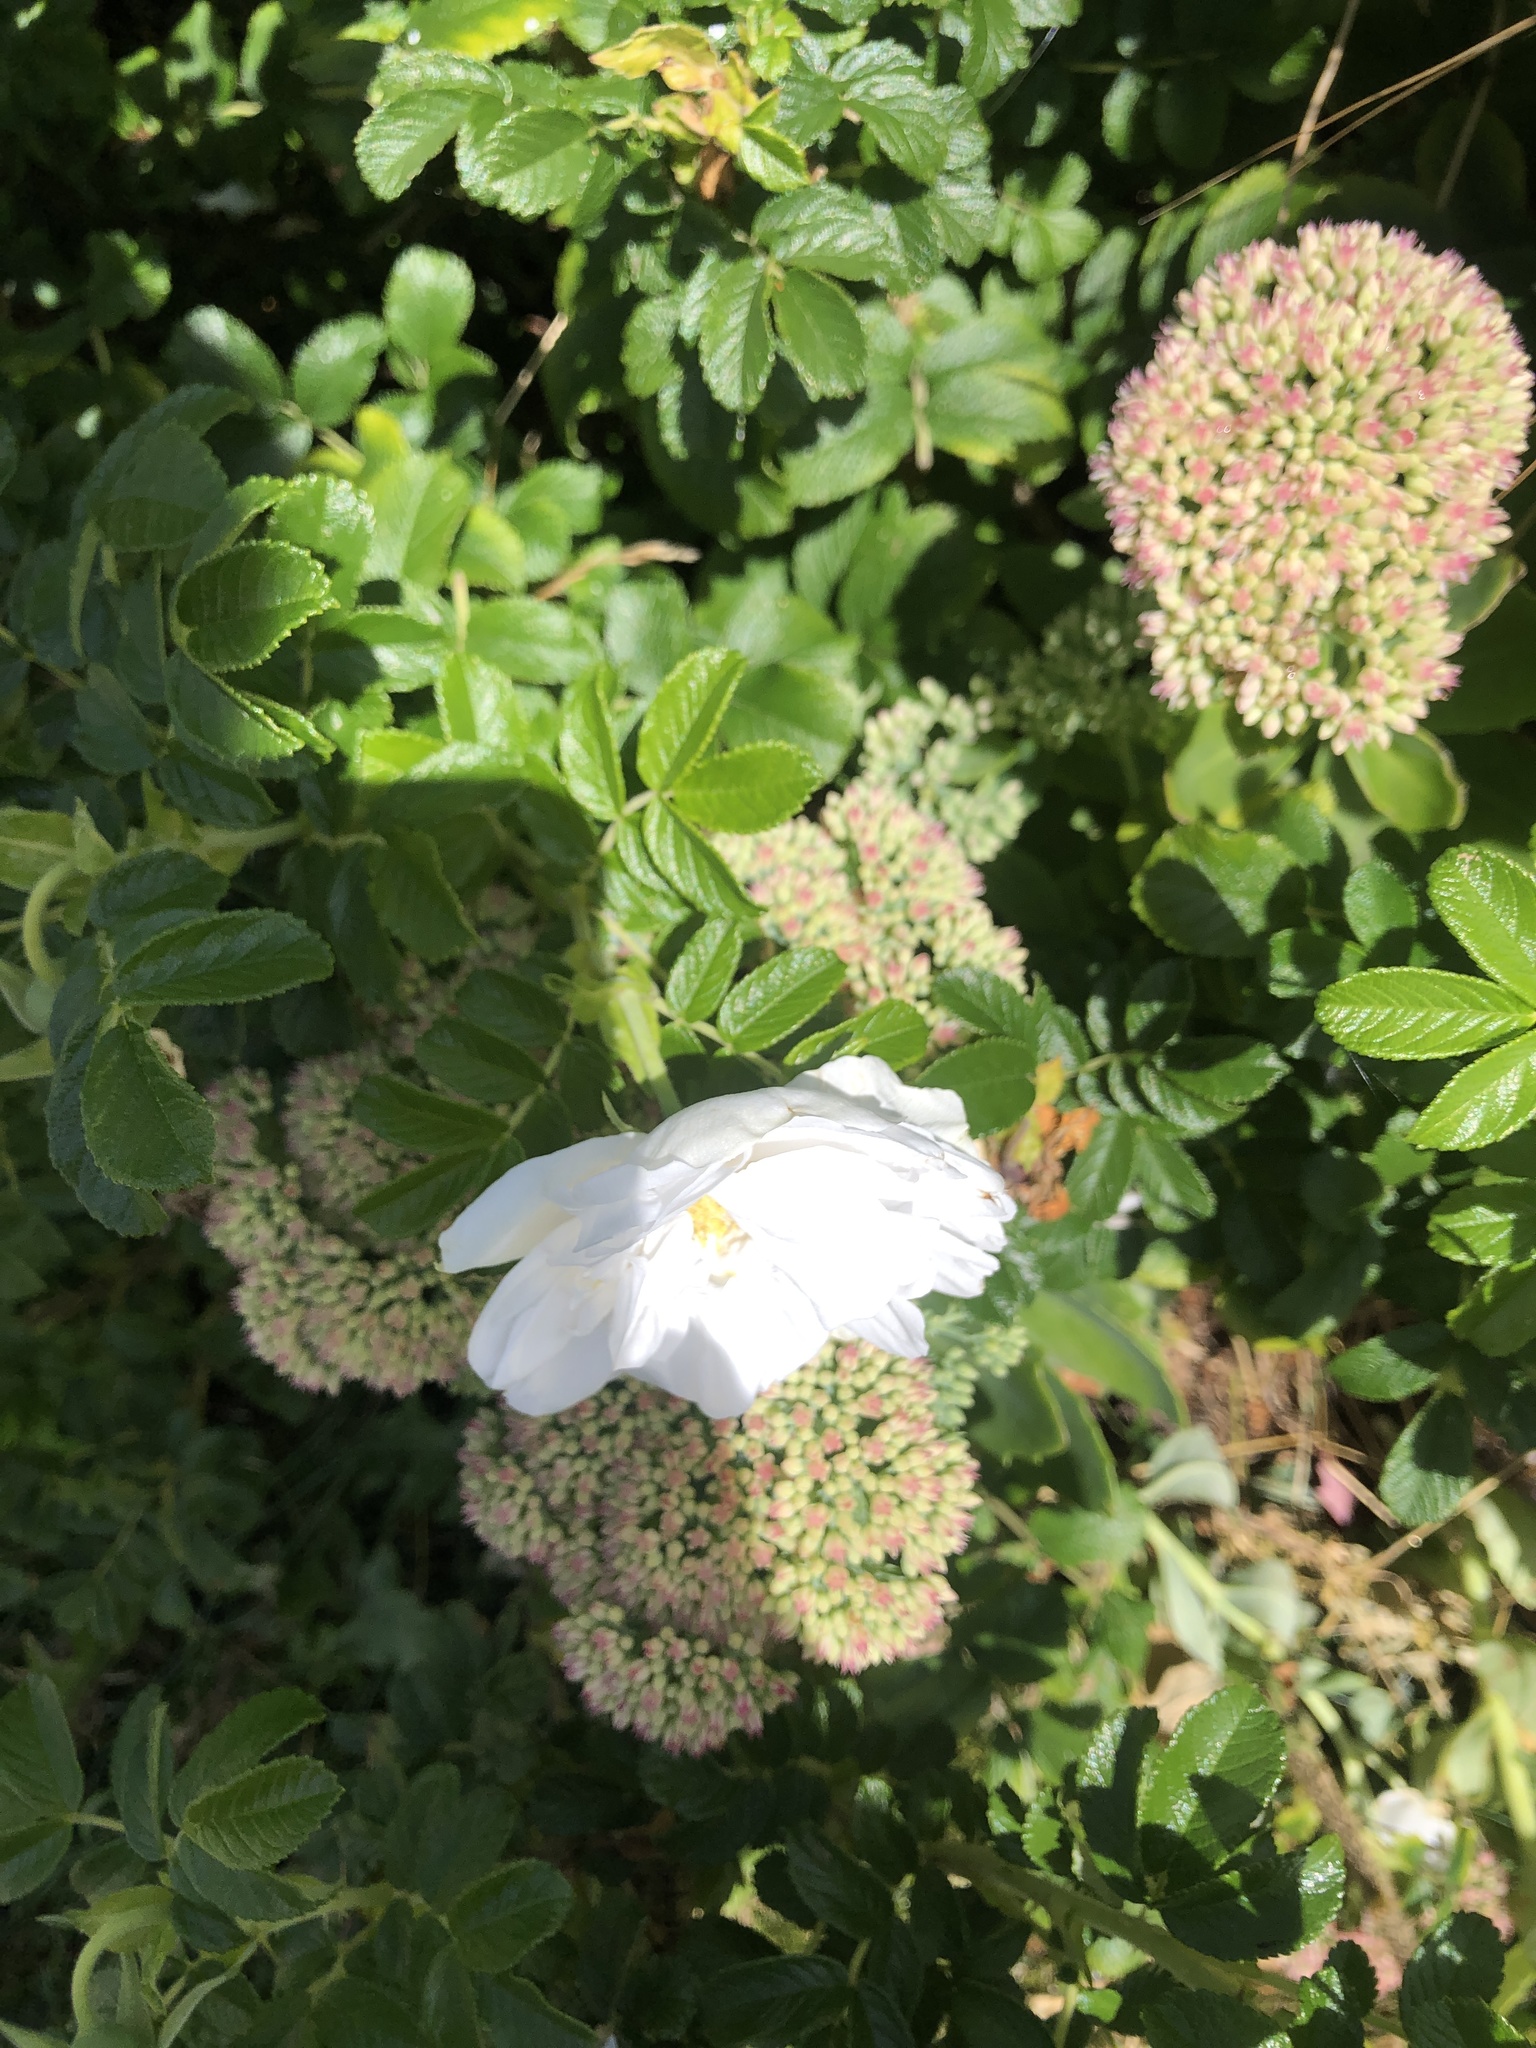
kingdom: Plantae
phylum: Tracheophyta
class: Magnoliopsida
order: Rosales
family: Rosaceae
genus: Rosa
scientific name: Rosa rugosa
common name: Japanese rose
